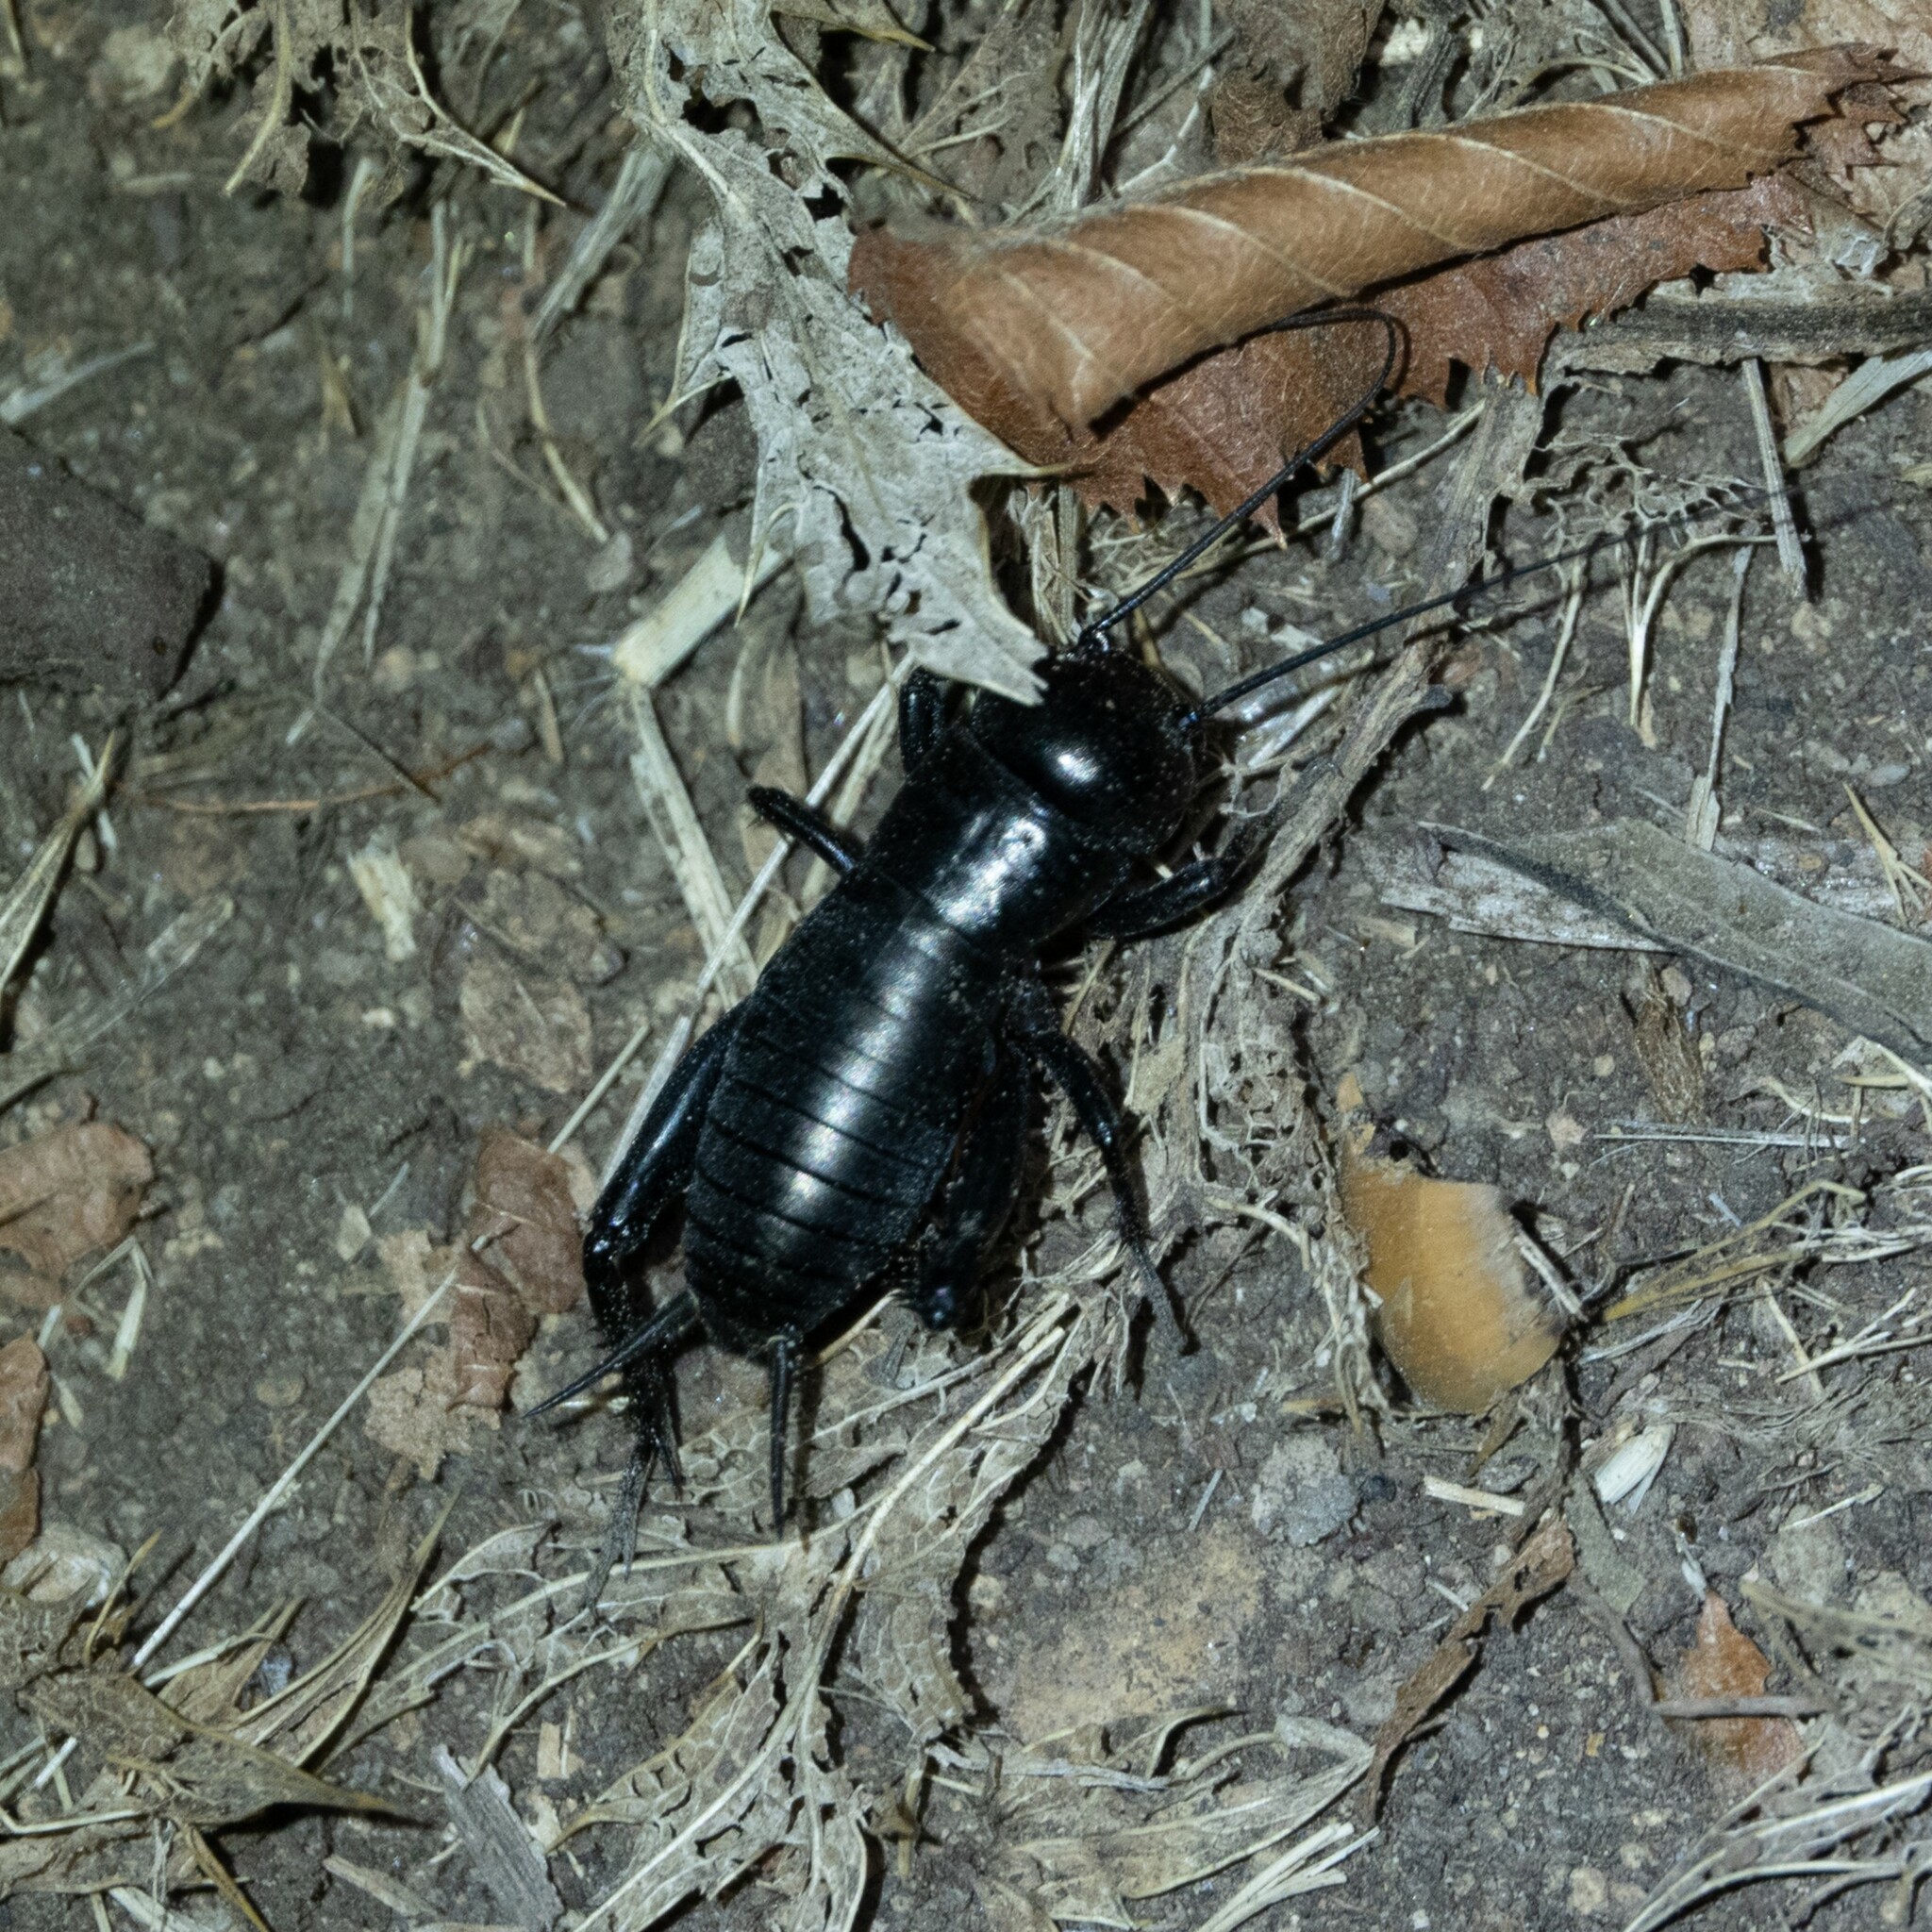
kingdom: Animalia
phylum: Arthropoda
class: Insecta
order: Orthoptera
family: Gryllidae
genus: Gryllus
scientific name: Gryllus campestris
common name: Field cricket
